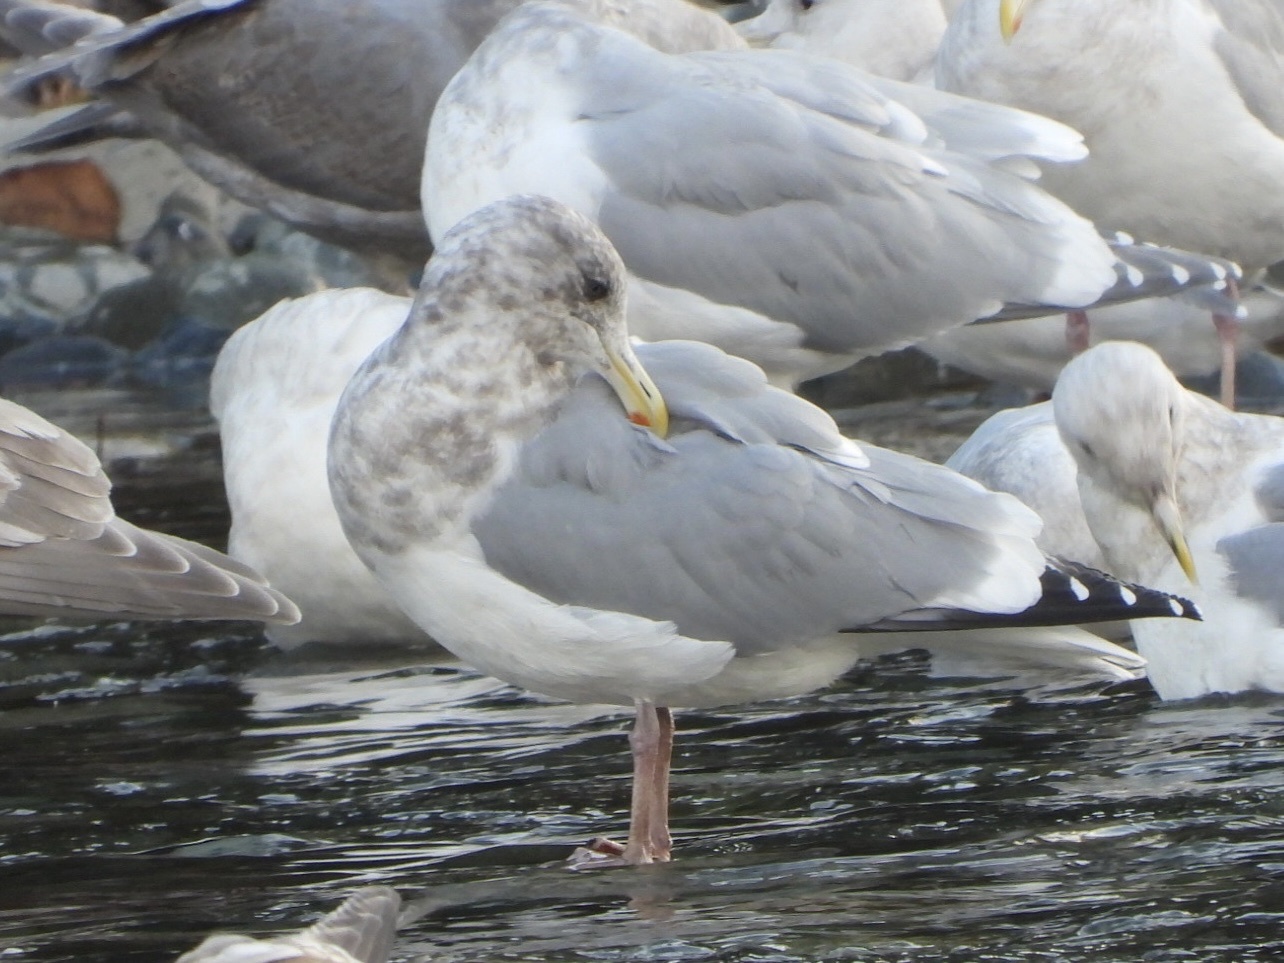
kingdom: Animalia
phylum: Chordata
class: Aves
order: Charadriiformes
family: Laridae
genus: Larus
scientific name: Larus
